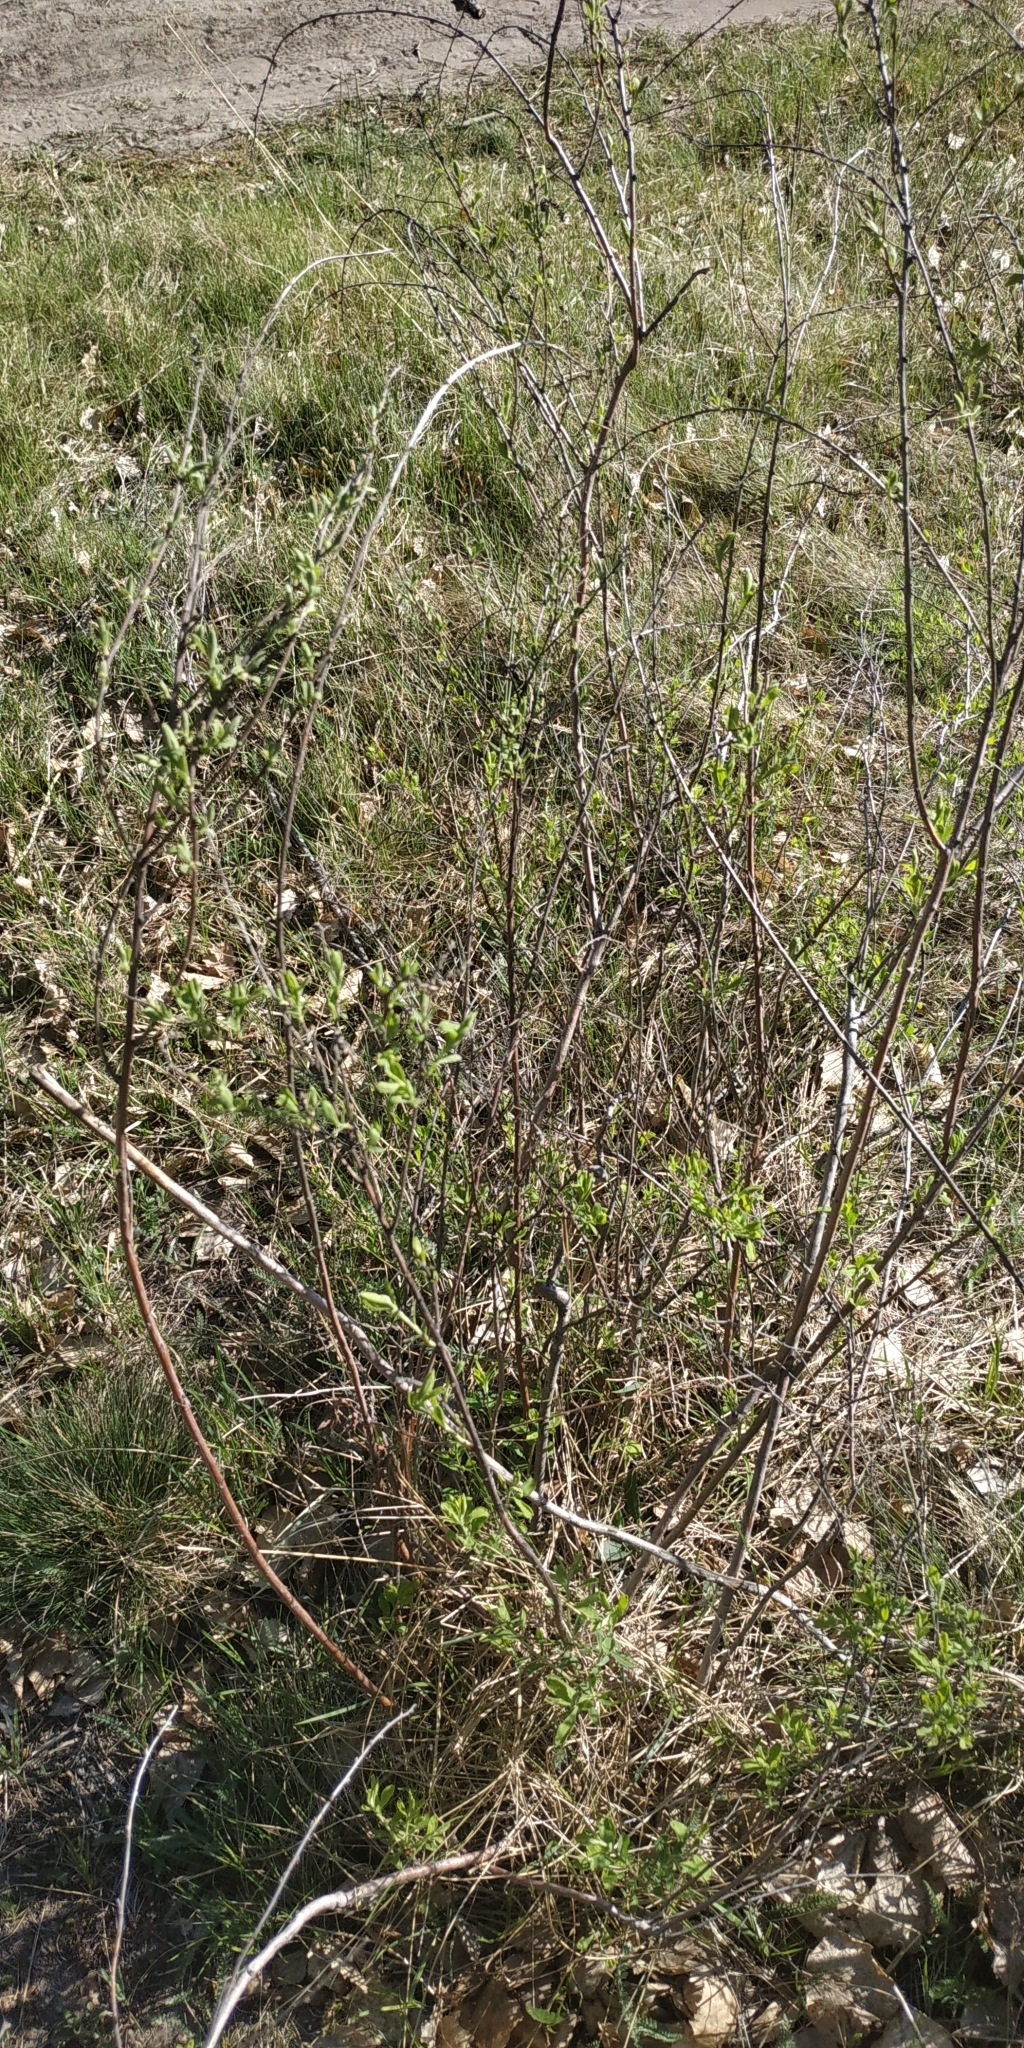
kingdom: Plantae
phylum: Tracheophyta
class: Magnoliopsida
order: Rosales
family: Rosaceae
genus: Spiraea
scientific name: Spiraea crenata
